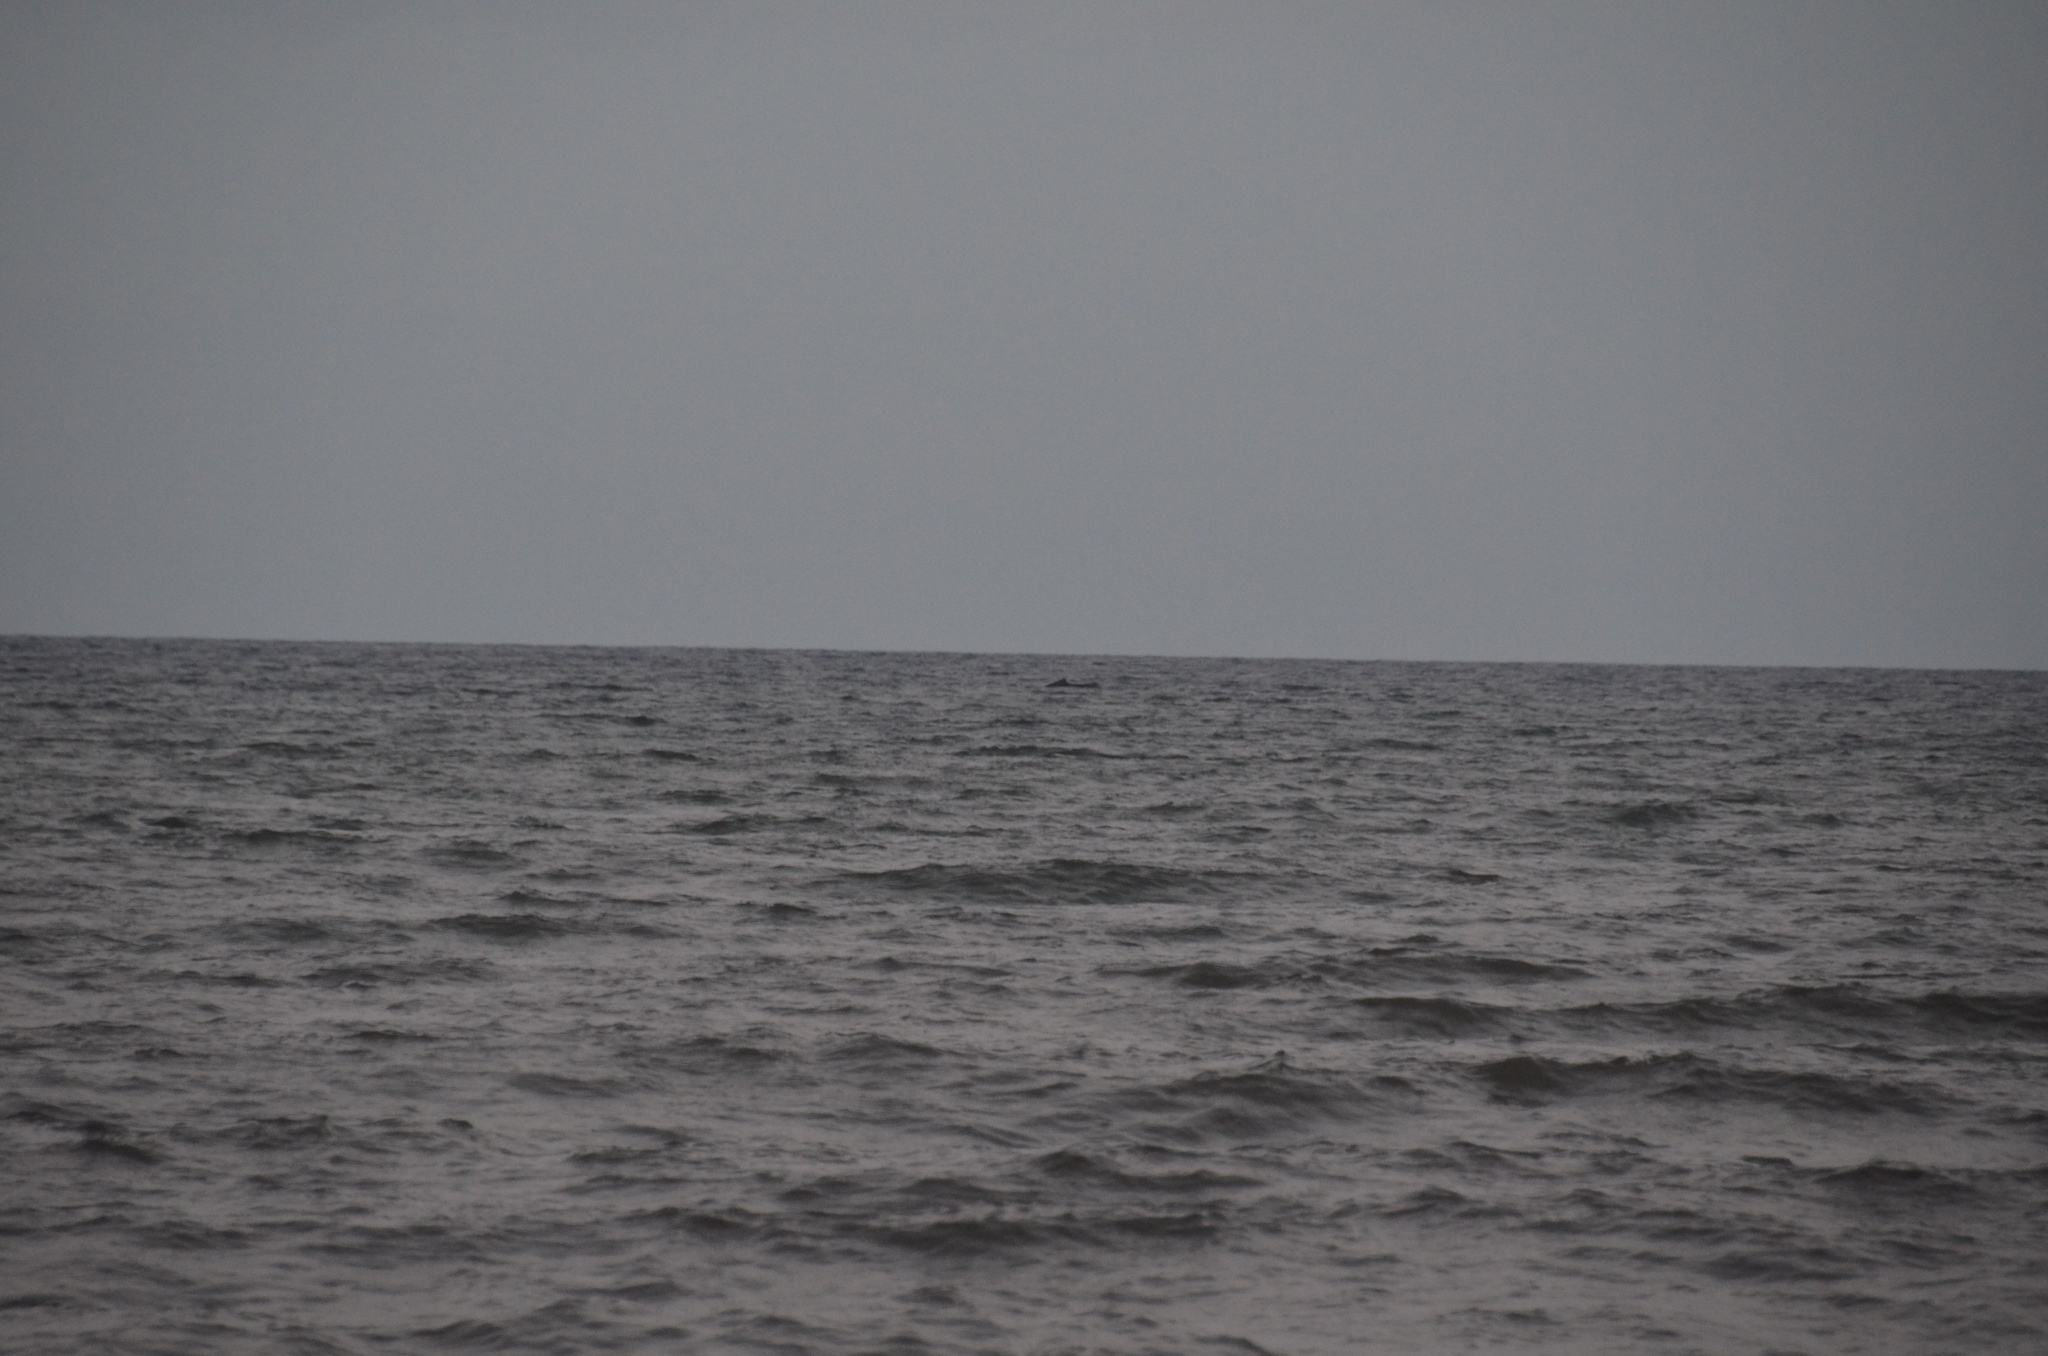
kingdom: Animalia
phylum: Chordata
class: Mammalia
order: Cetacea
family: Balaenopteridae
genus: Megaptera
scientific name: Megaptera novaeangliae
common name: Humpback whale
